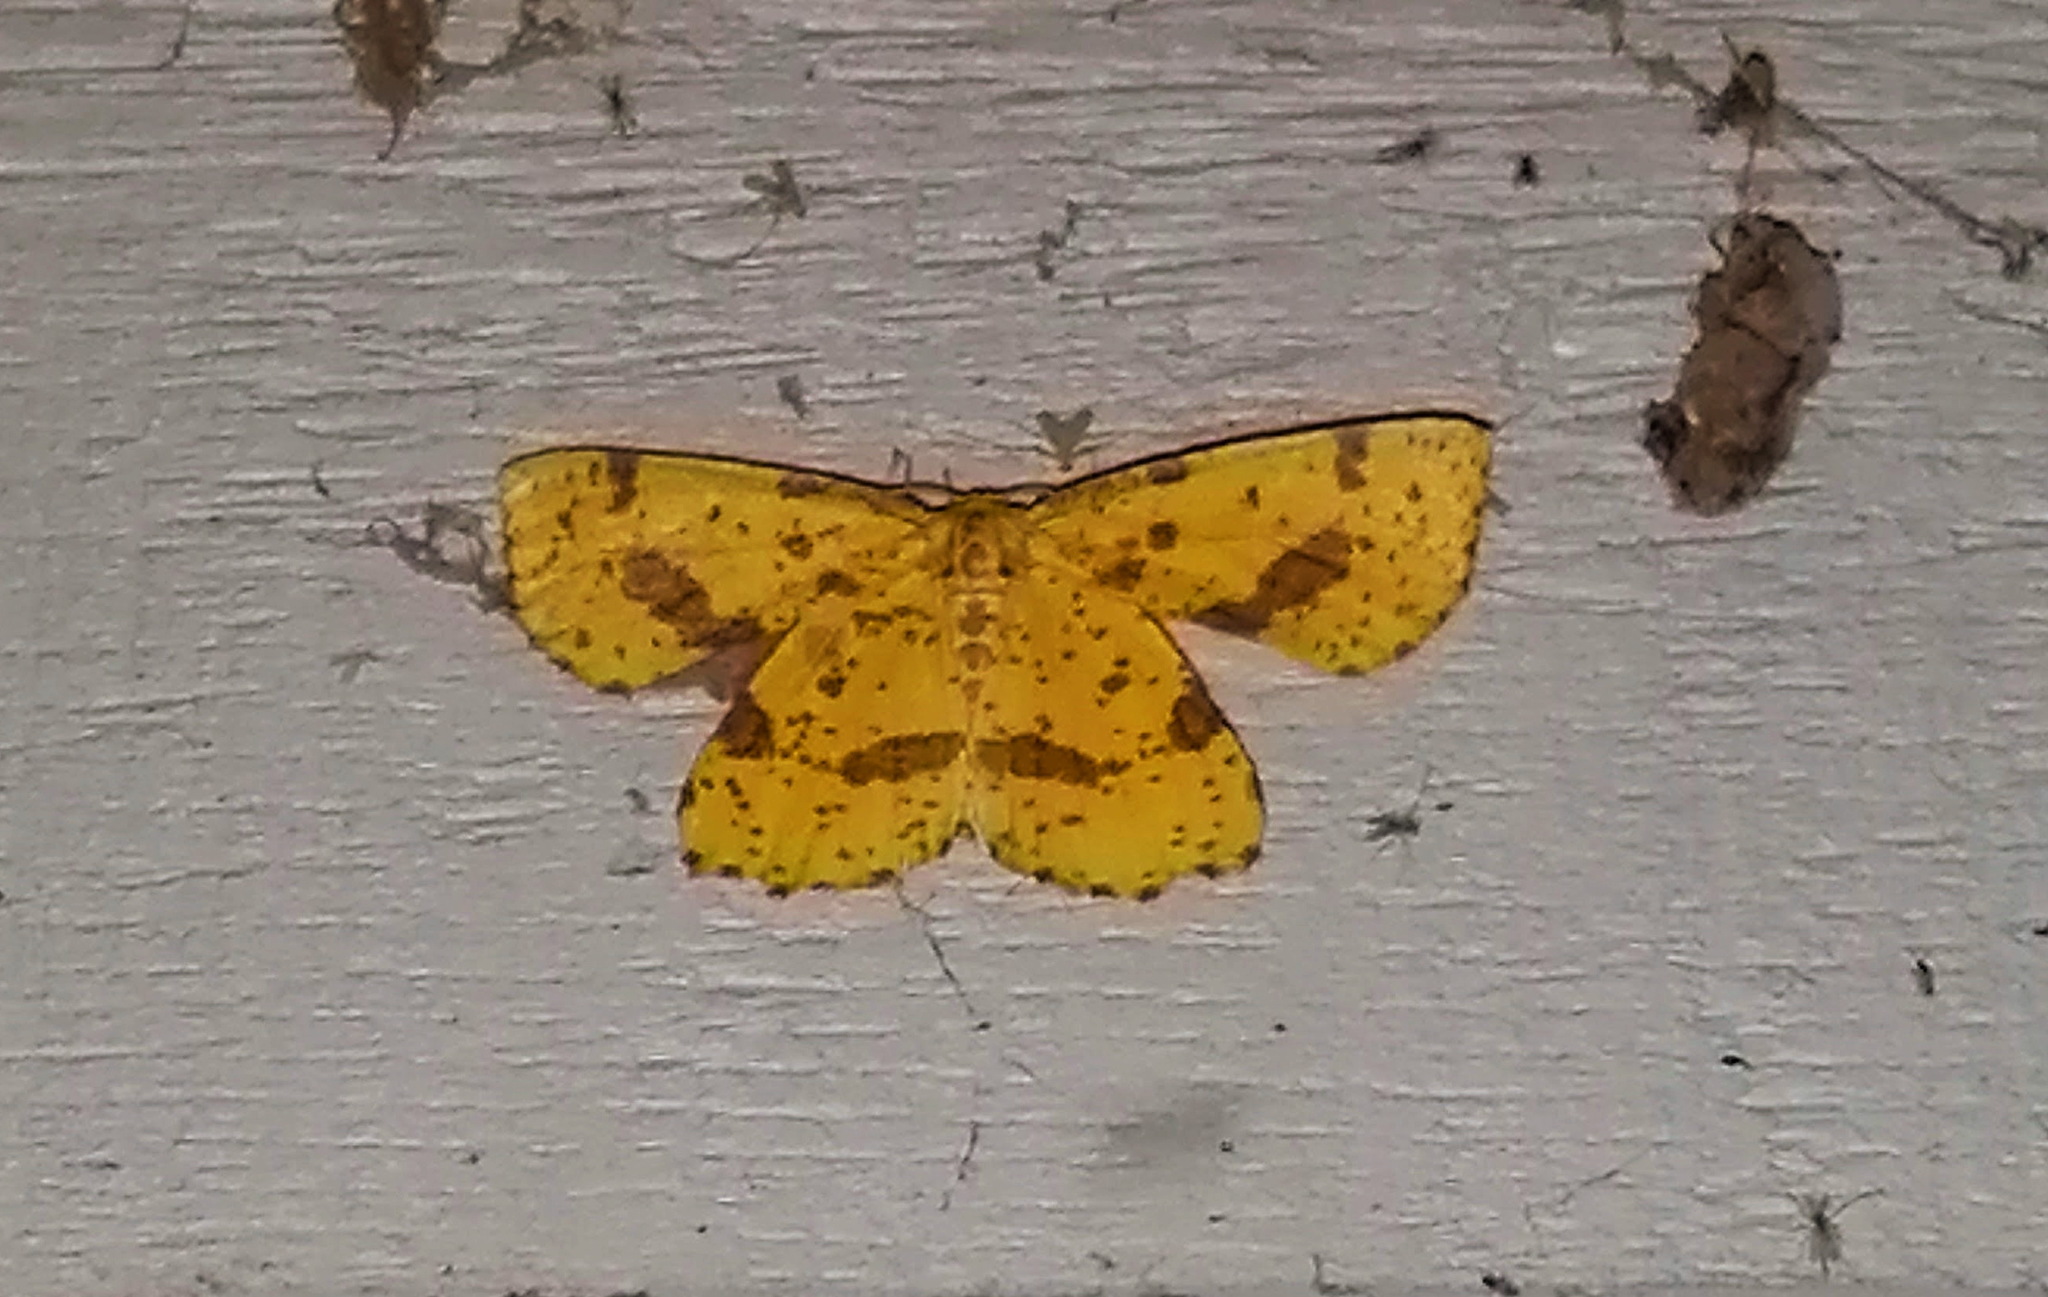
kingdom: Animalia
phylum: Arthropoda
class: Insecta
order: Lepidoptera
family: Geometridae
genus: Xanthotype
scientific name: Xanthotype
